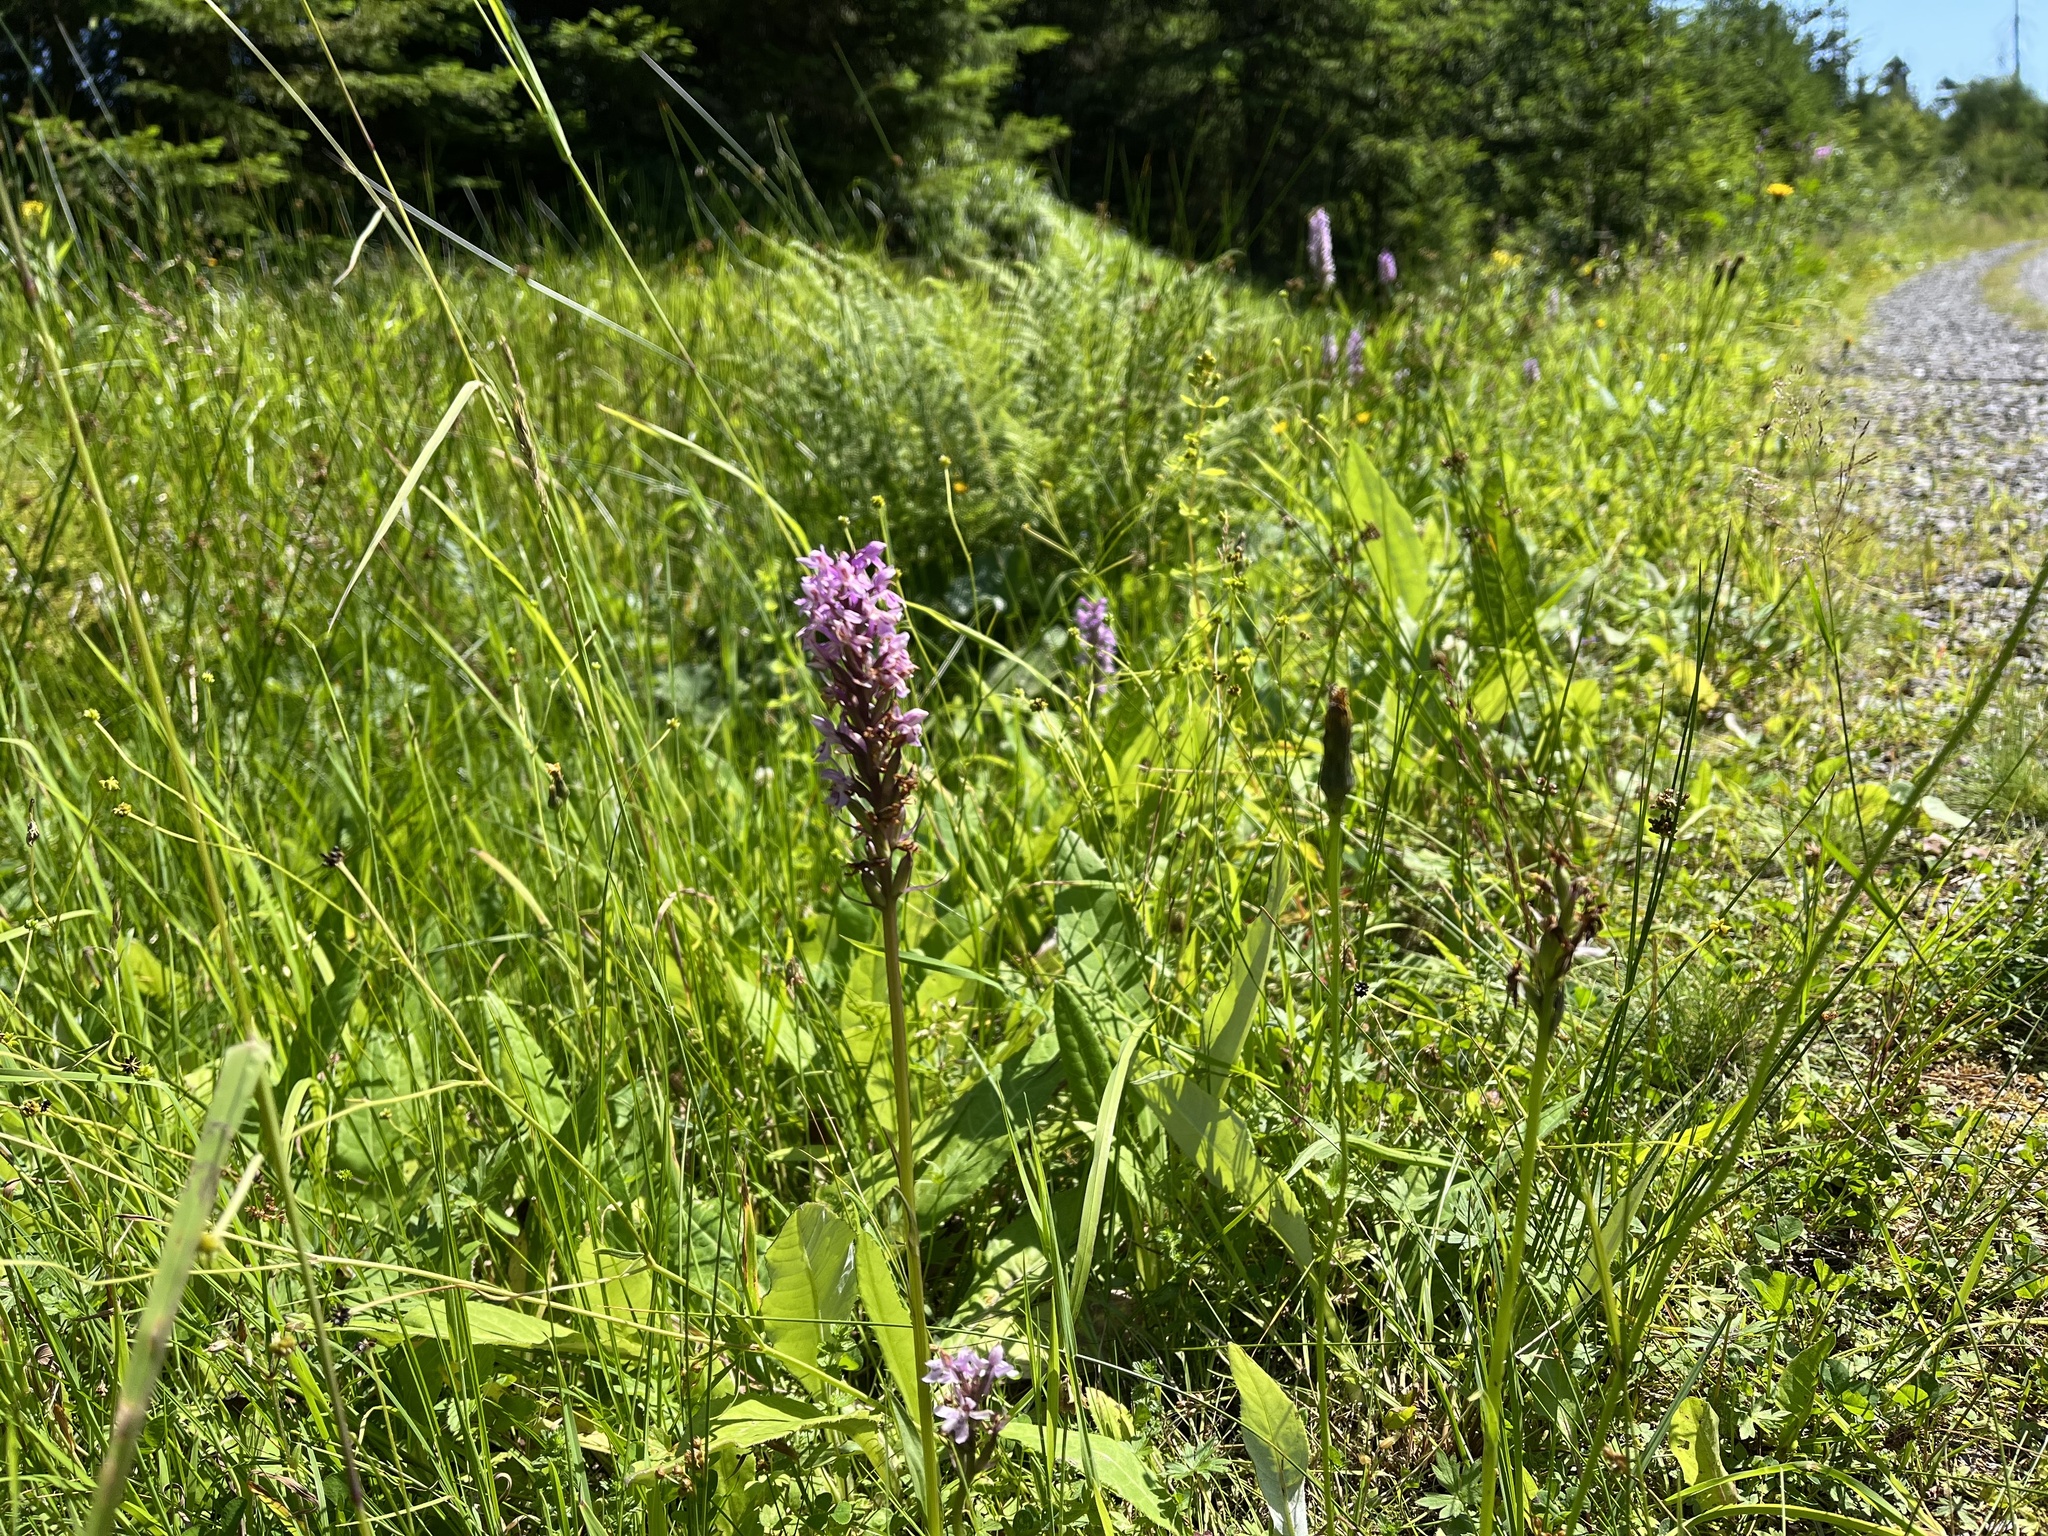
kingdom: Plantae
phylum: Tracheophyta
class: Liliopsida
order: Asparagales
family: Orchidaceae
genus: Dactylorhiza
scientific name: Dactylorhiza maculata
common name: Heath spotted-orchid
